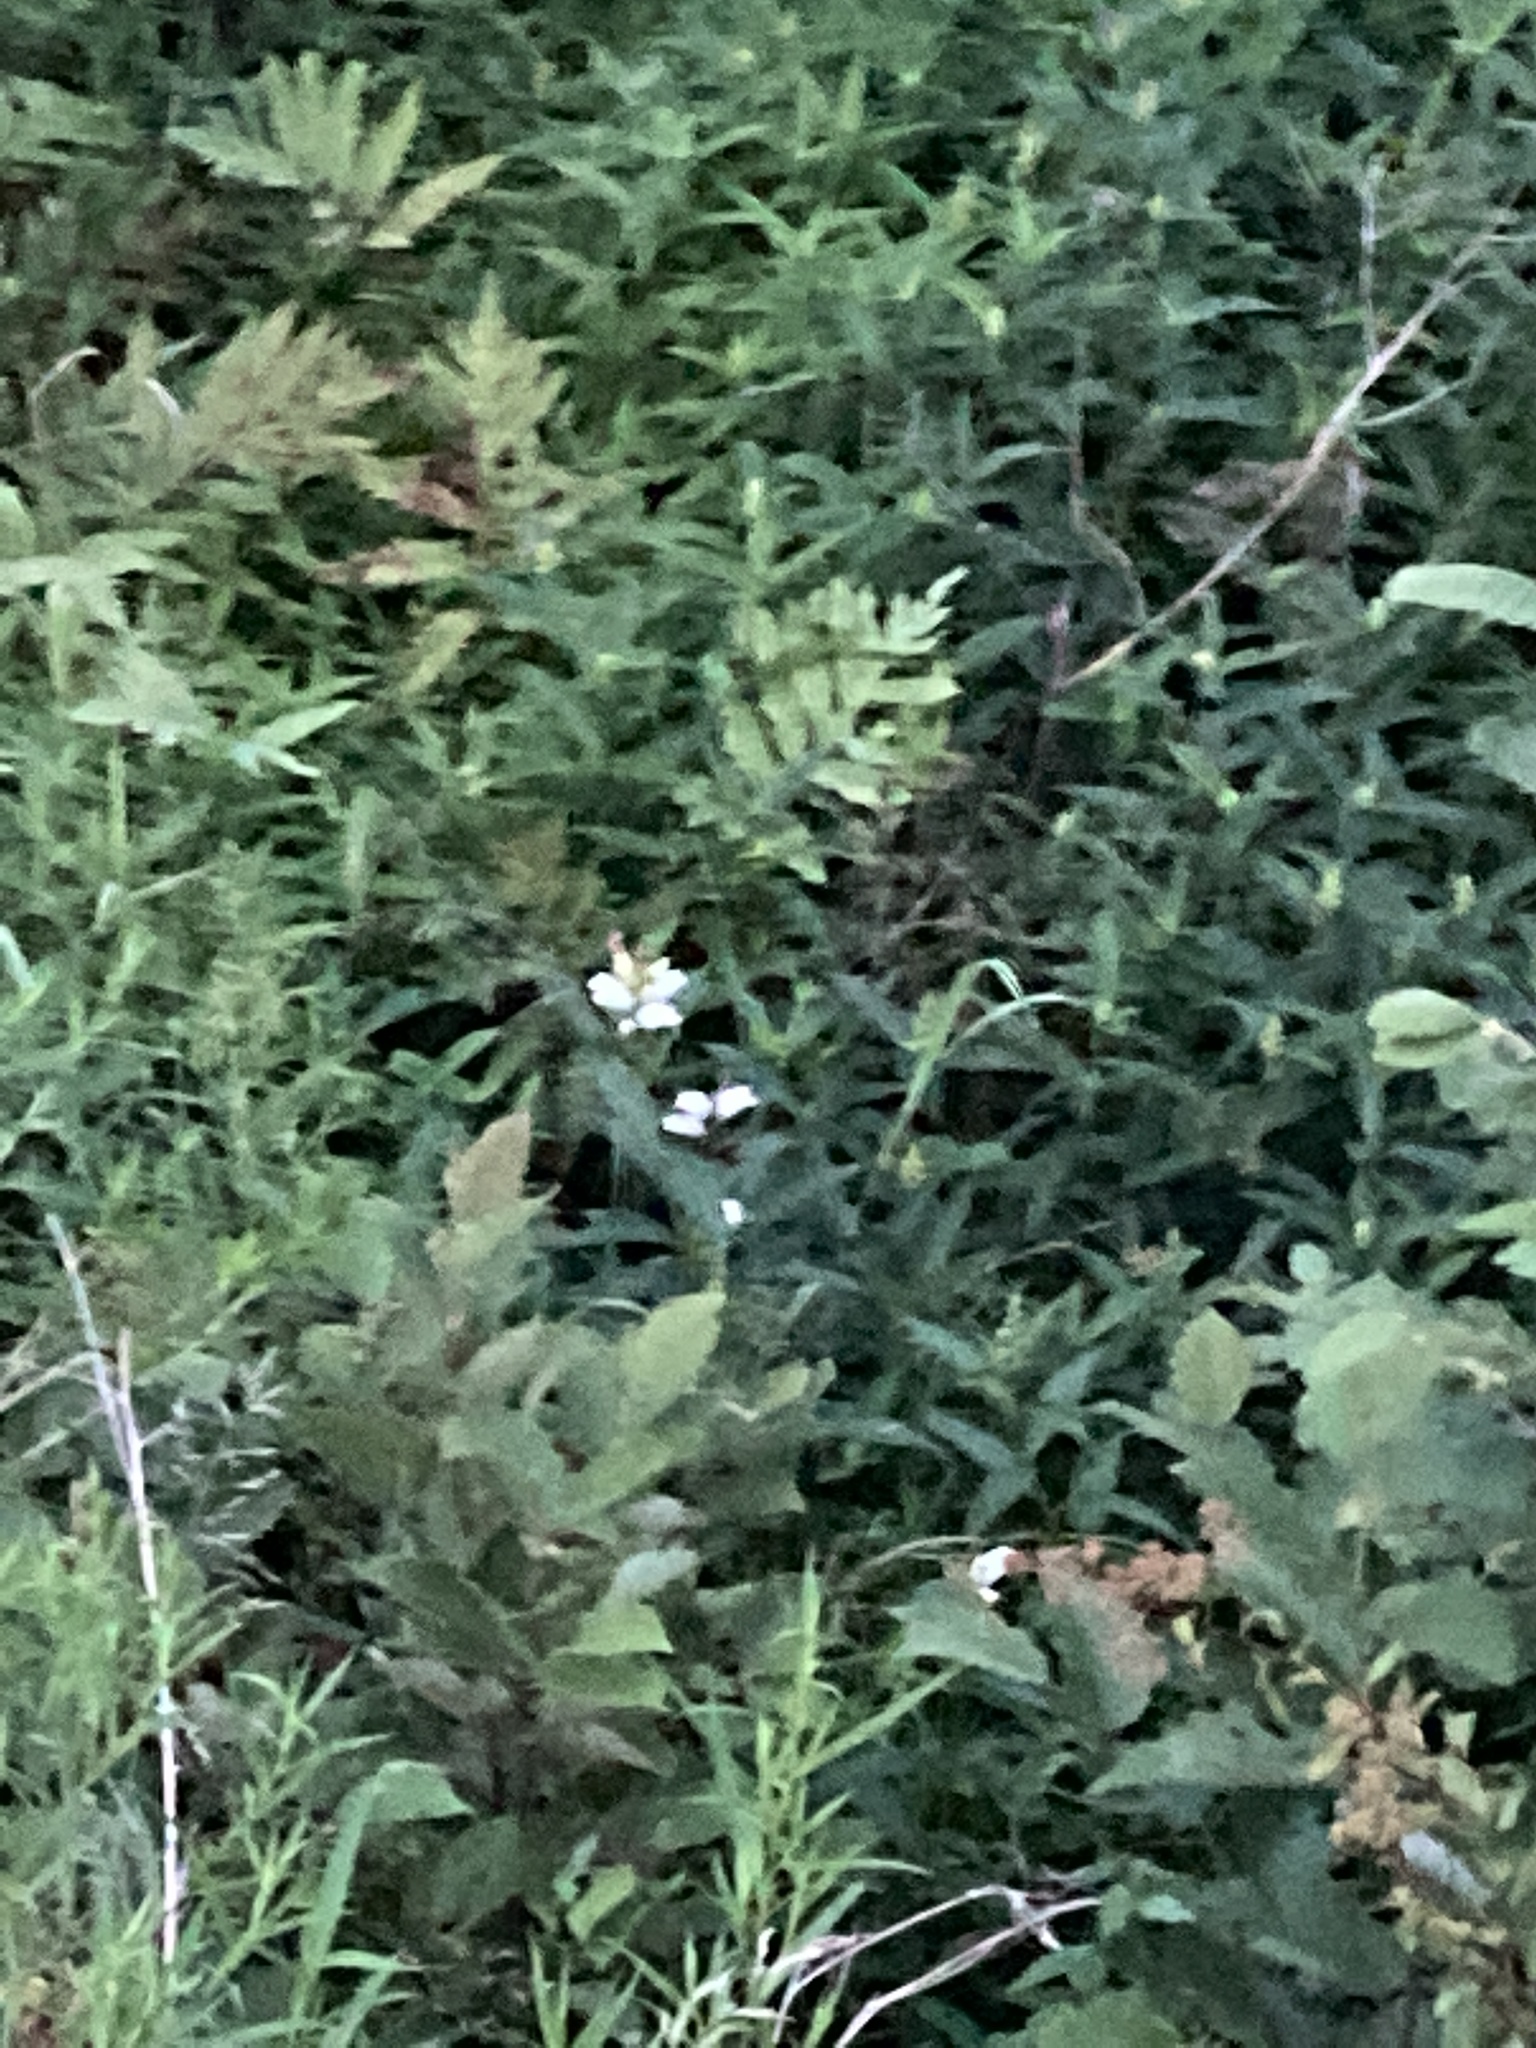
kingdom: Plantae
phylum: Tracheophyta
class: Magnoliopsida
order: Lamiales
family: Plantaginaceae
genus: Chelone
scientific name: Chelone glabra
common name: Snakehead
